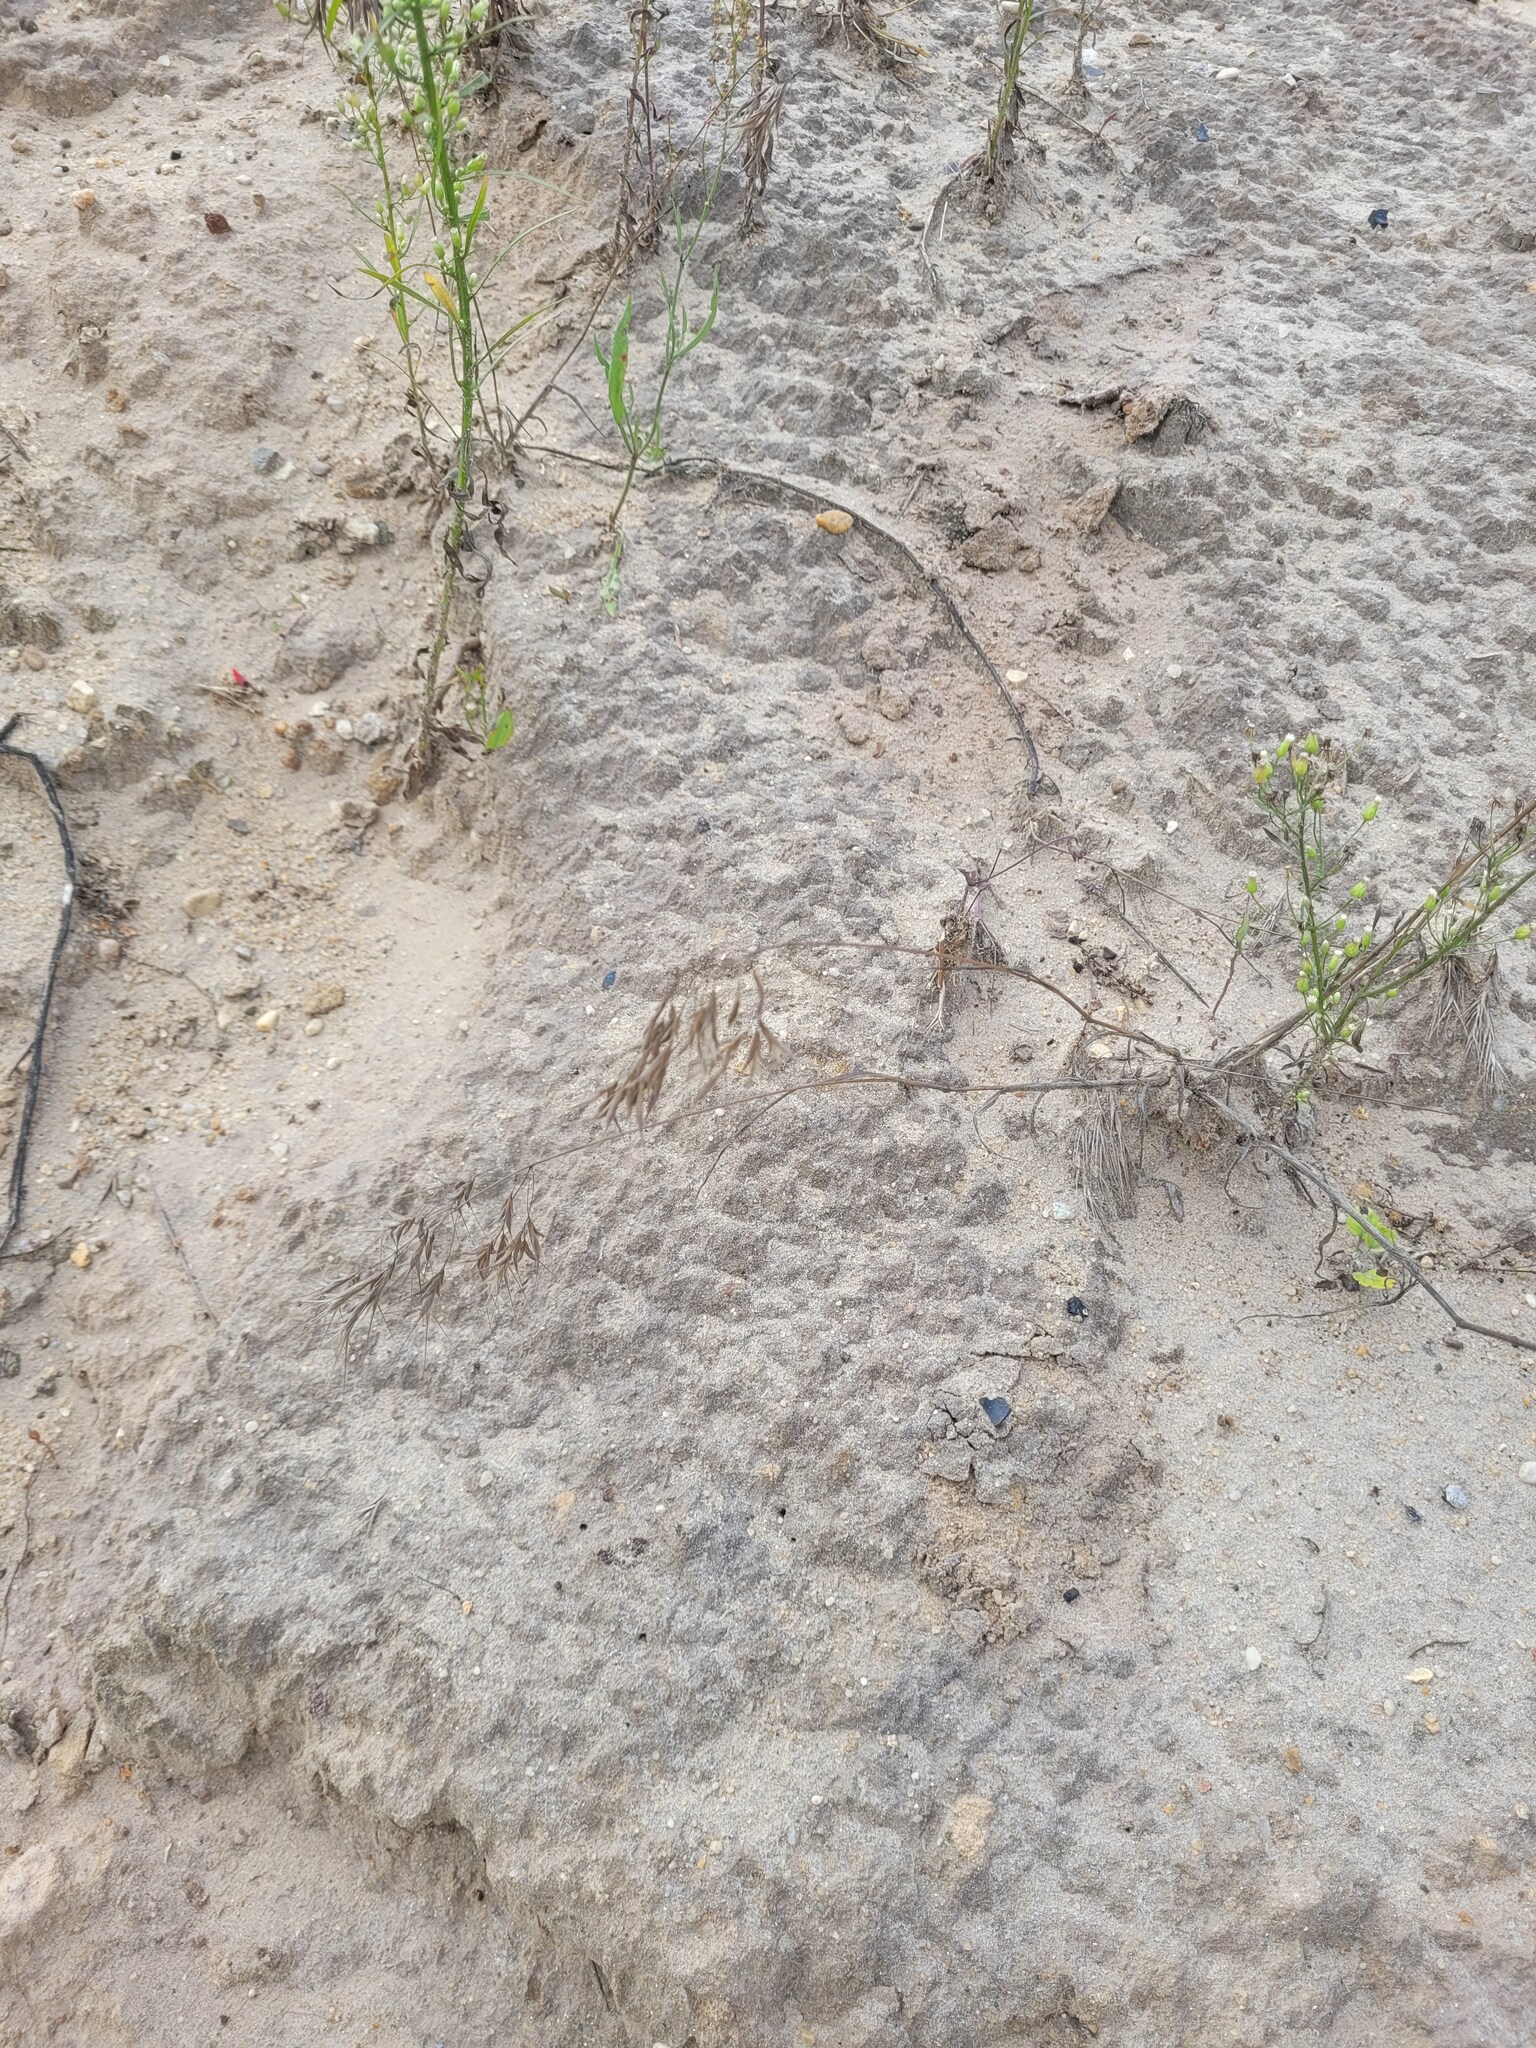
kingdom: Plantae
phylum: Tracheophyta
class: Liliopsida
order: Poales
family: Poaceae
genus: Bromus
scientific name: Bromus tectorum
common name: Cheatgrass
